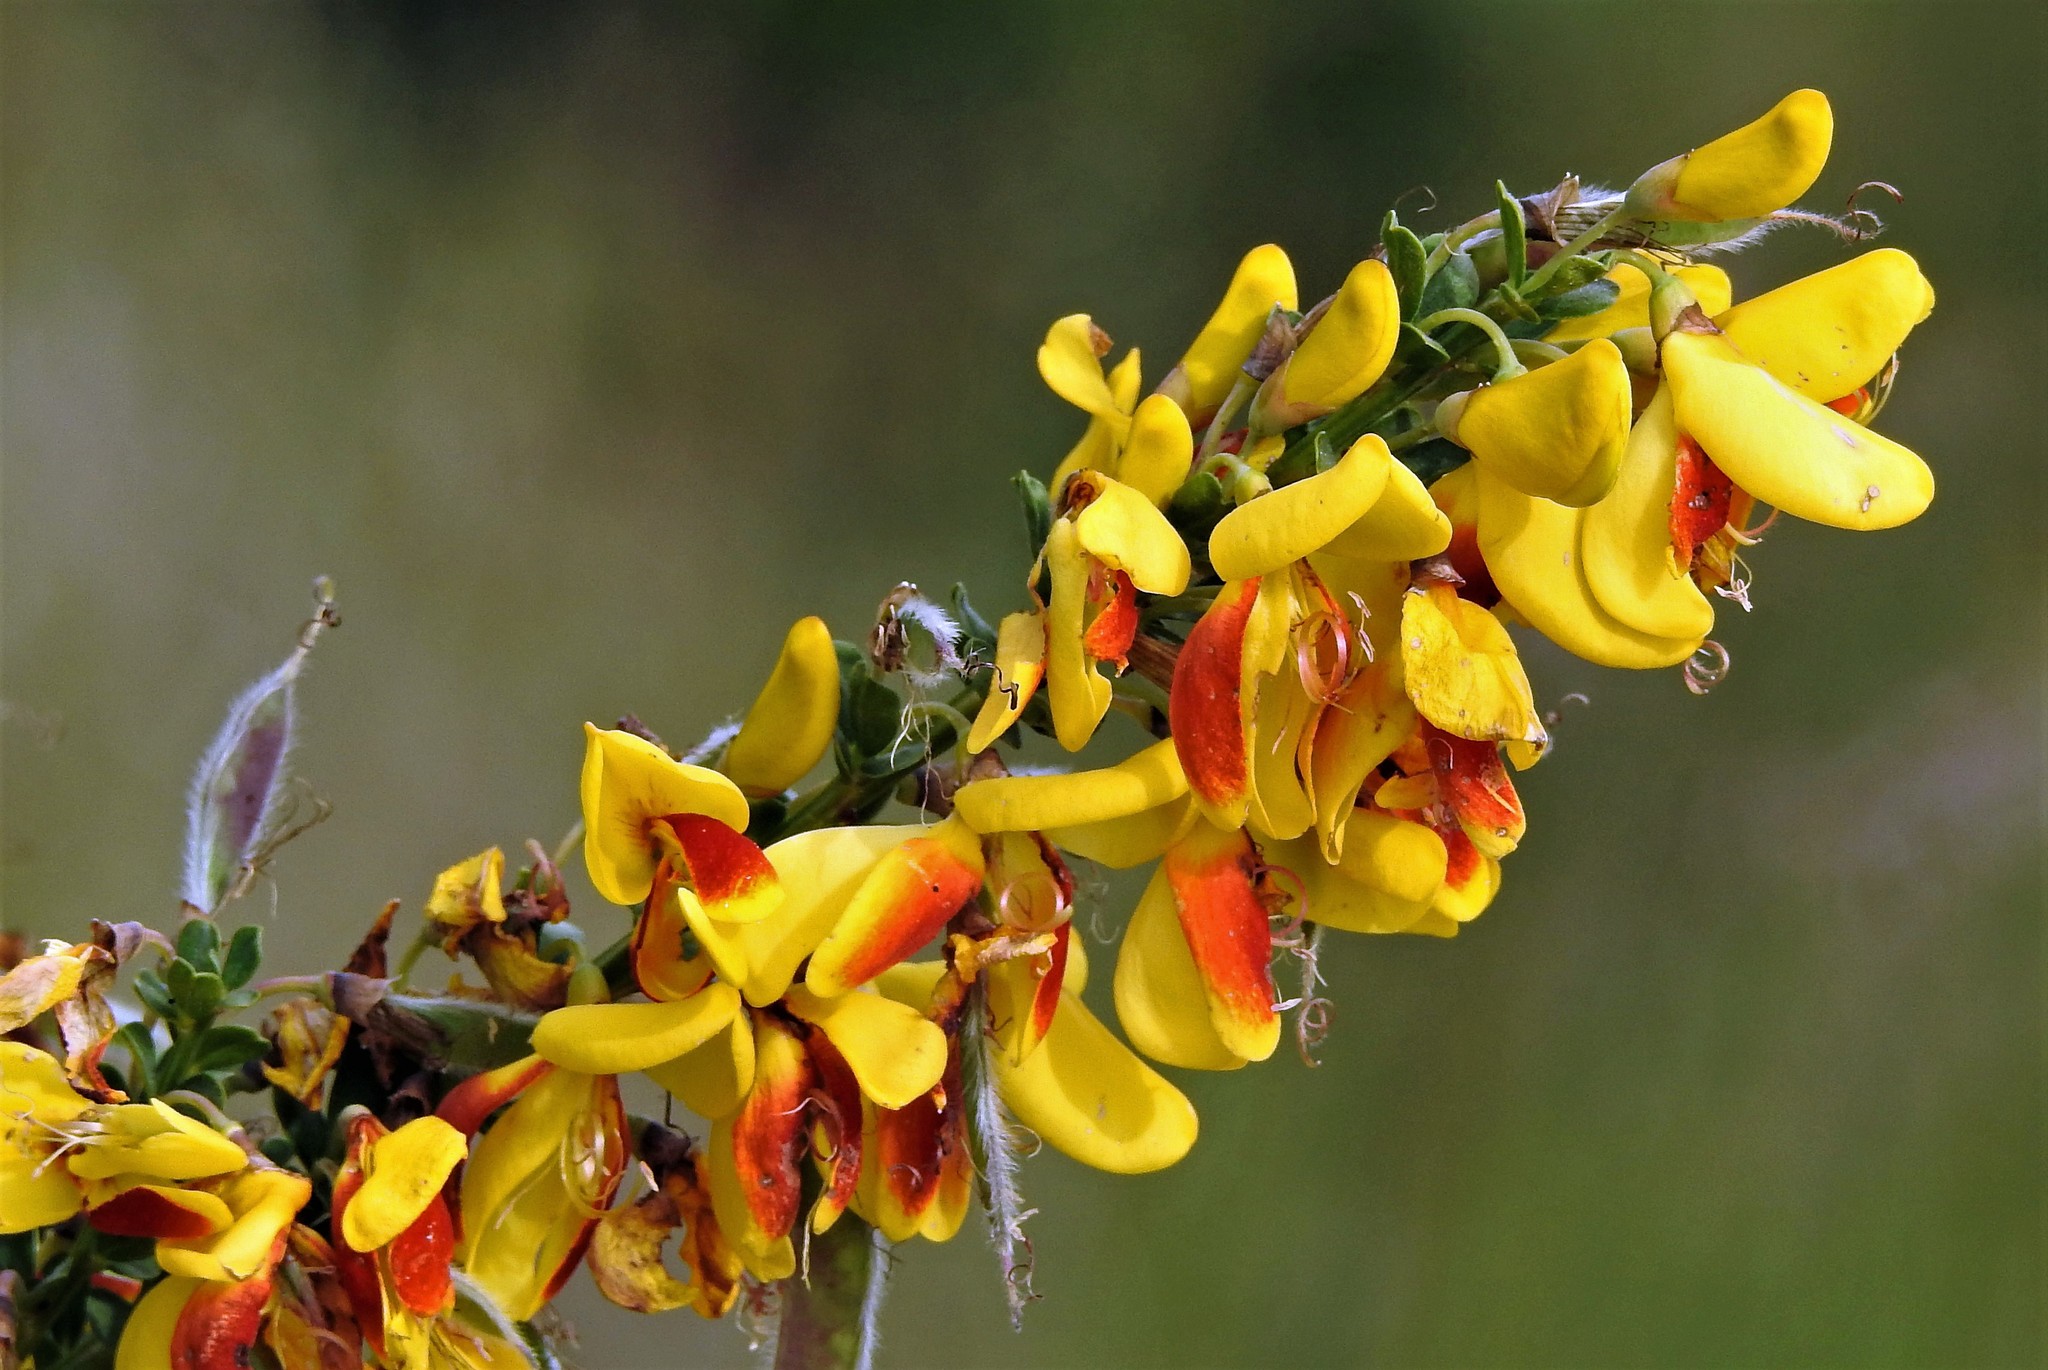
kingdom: Plantae
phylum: Tracheophyta
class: Magnoliopsida
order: Fabales
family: Fabaceae
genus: Cytisus
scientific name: Cytisus scoparius
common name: Scotch broom
